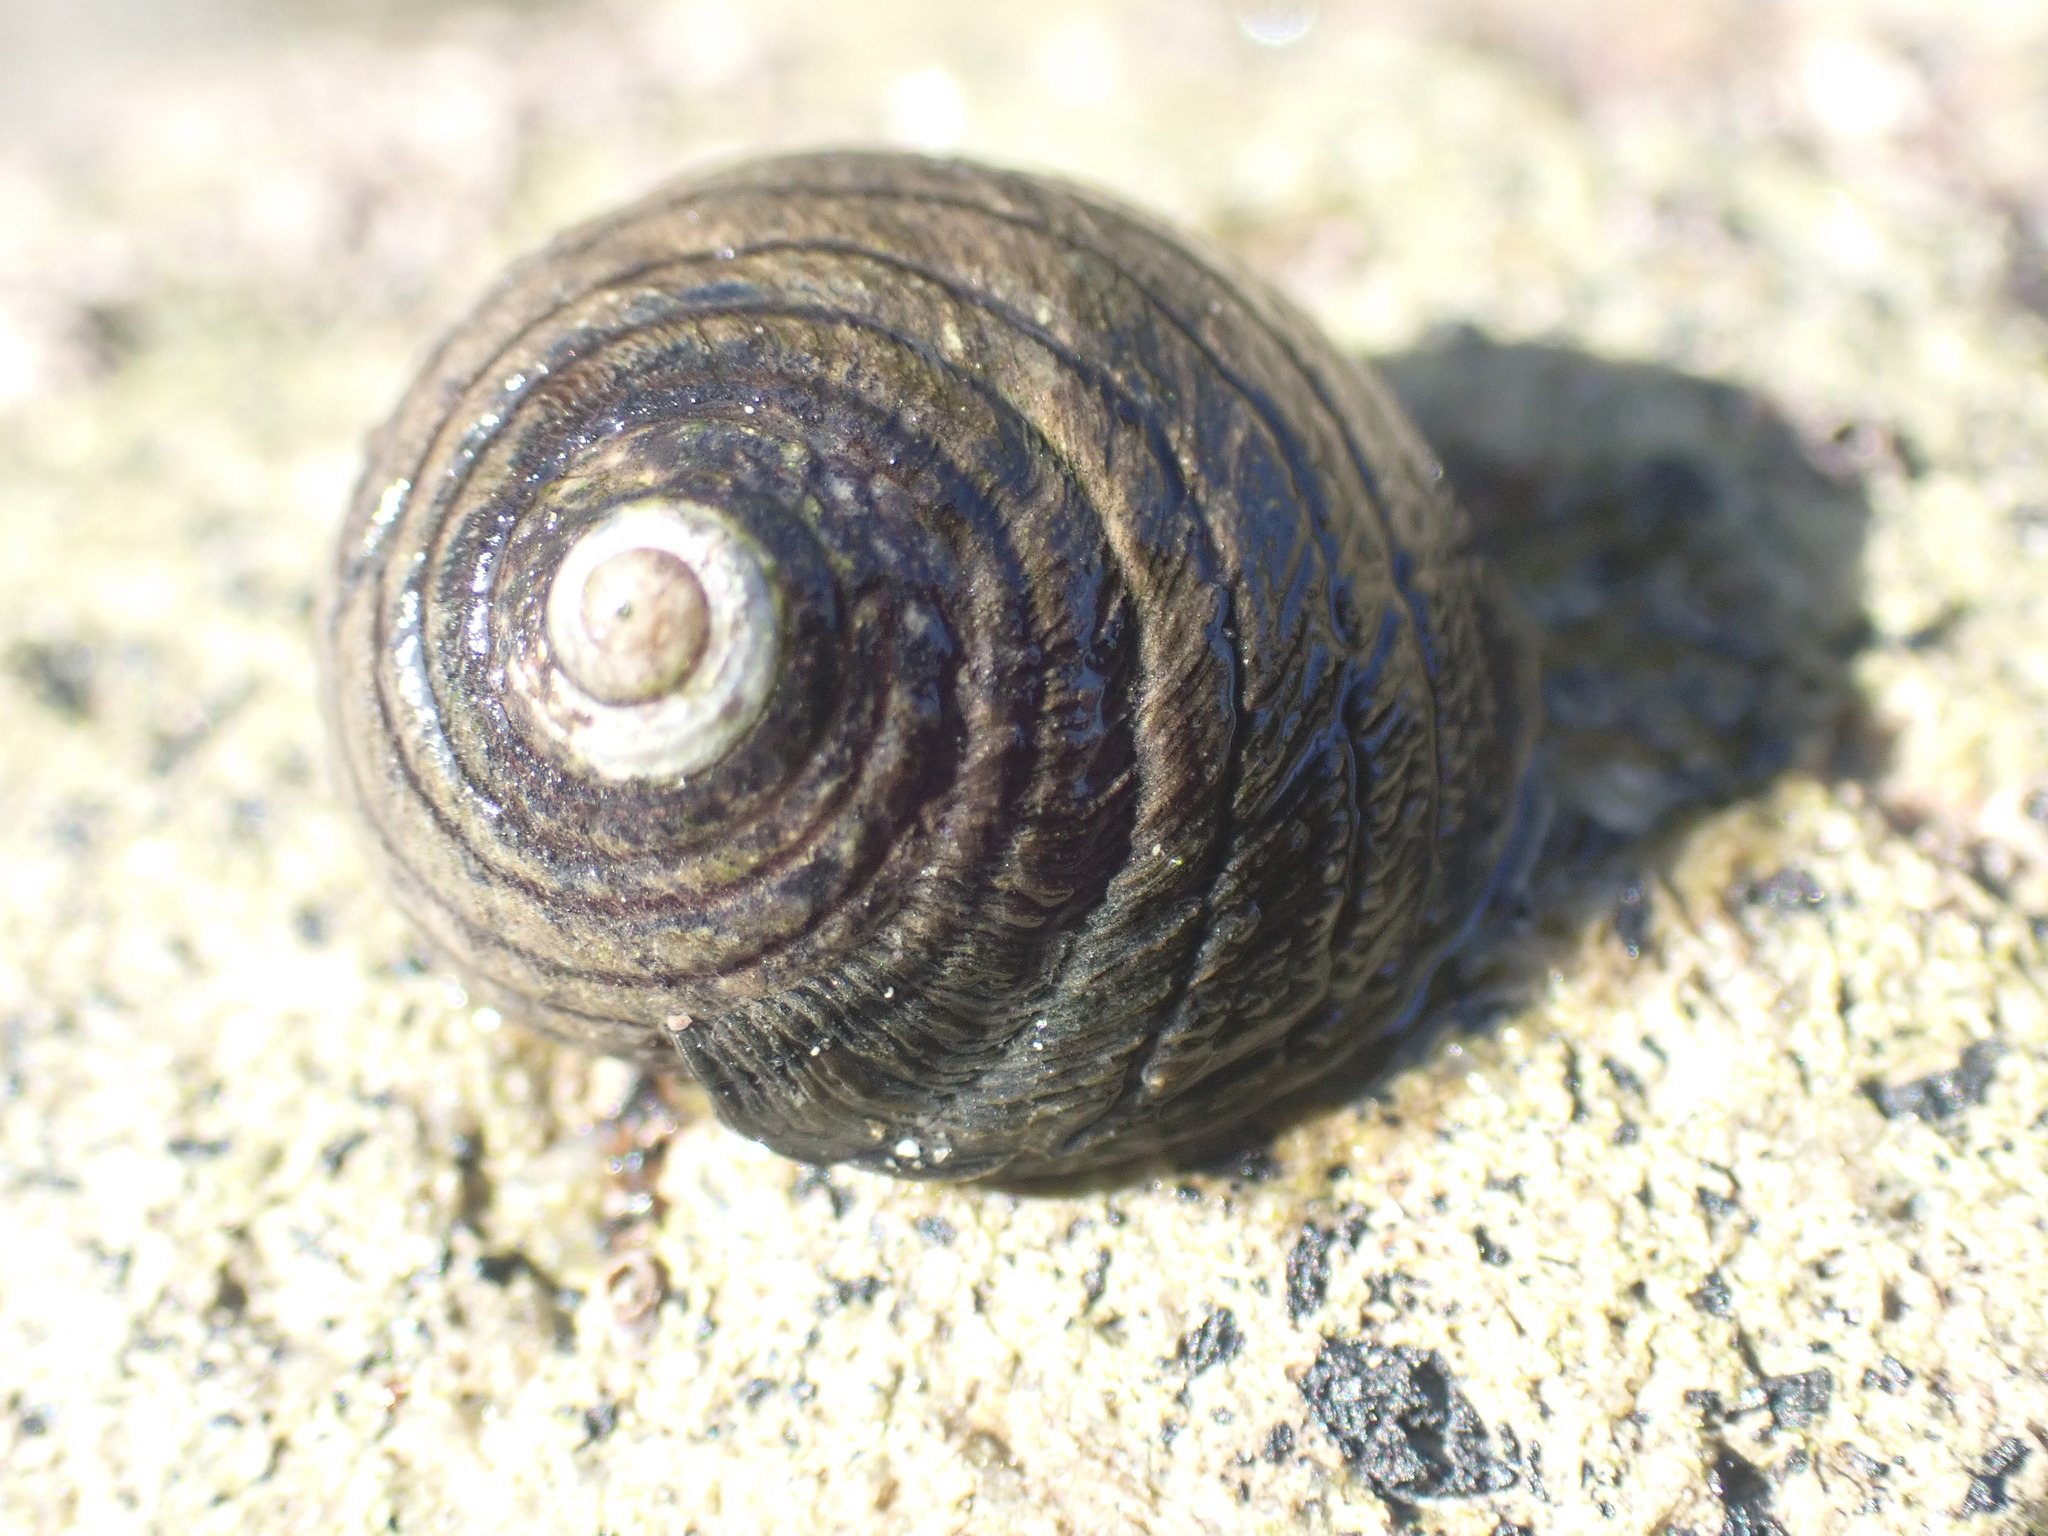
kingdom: Animalia
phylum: Mollusca
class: Gastropoda
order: Trochida
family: Trochidae
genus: Diloma
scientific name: Diloma aethiops
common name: Scorched monodont
